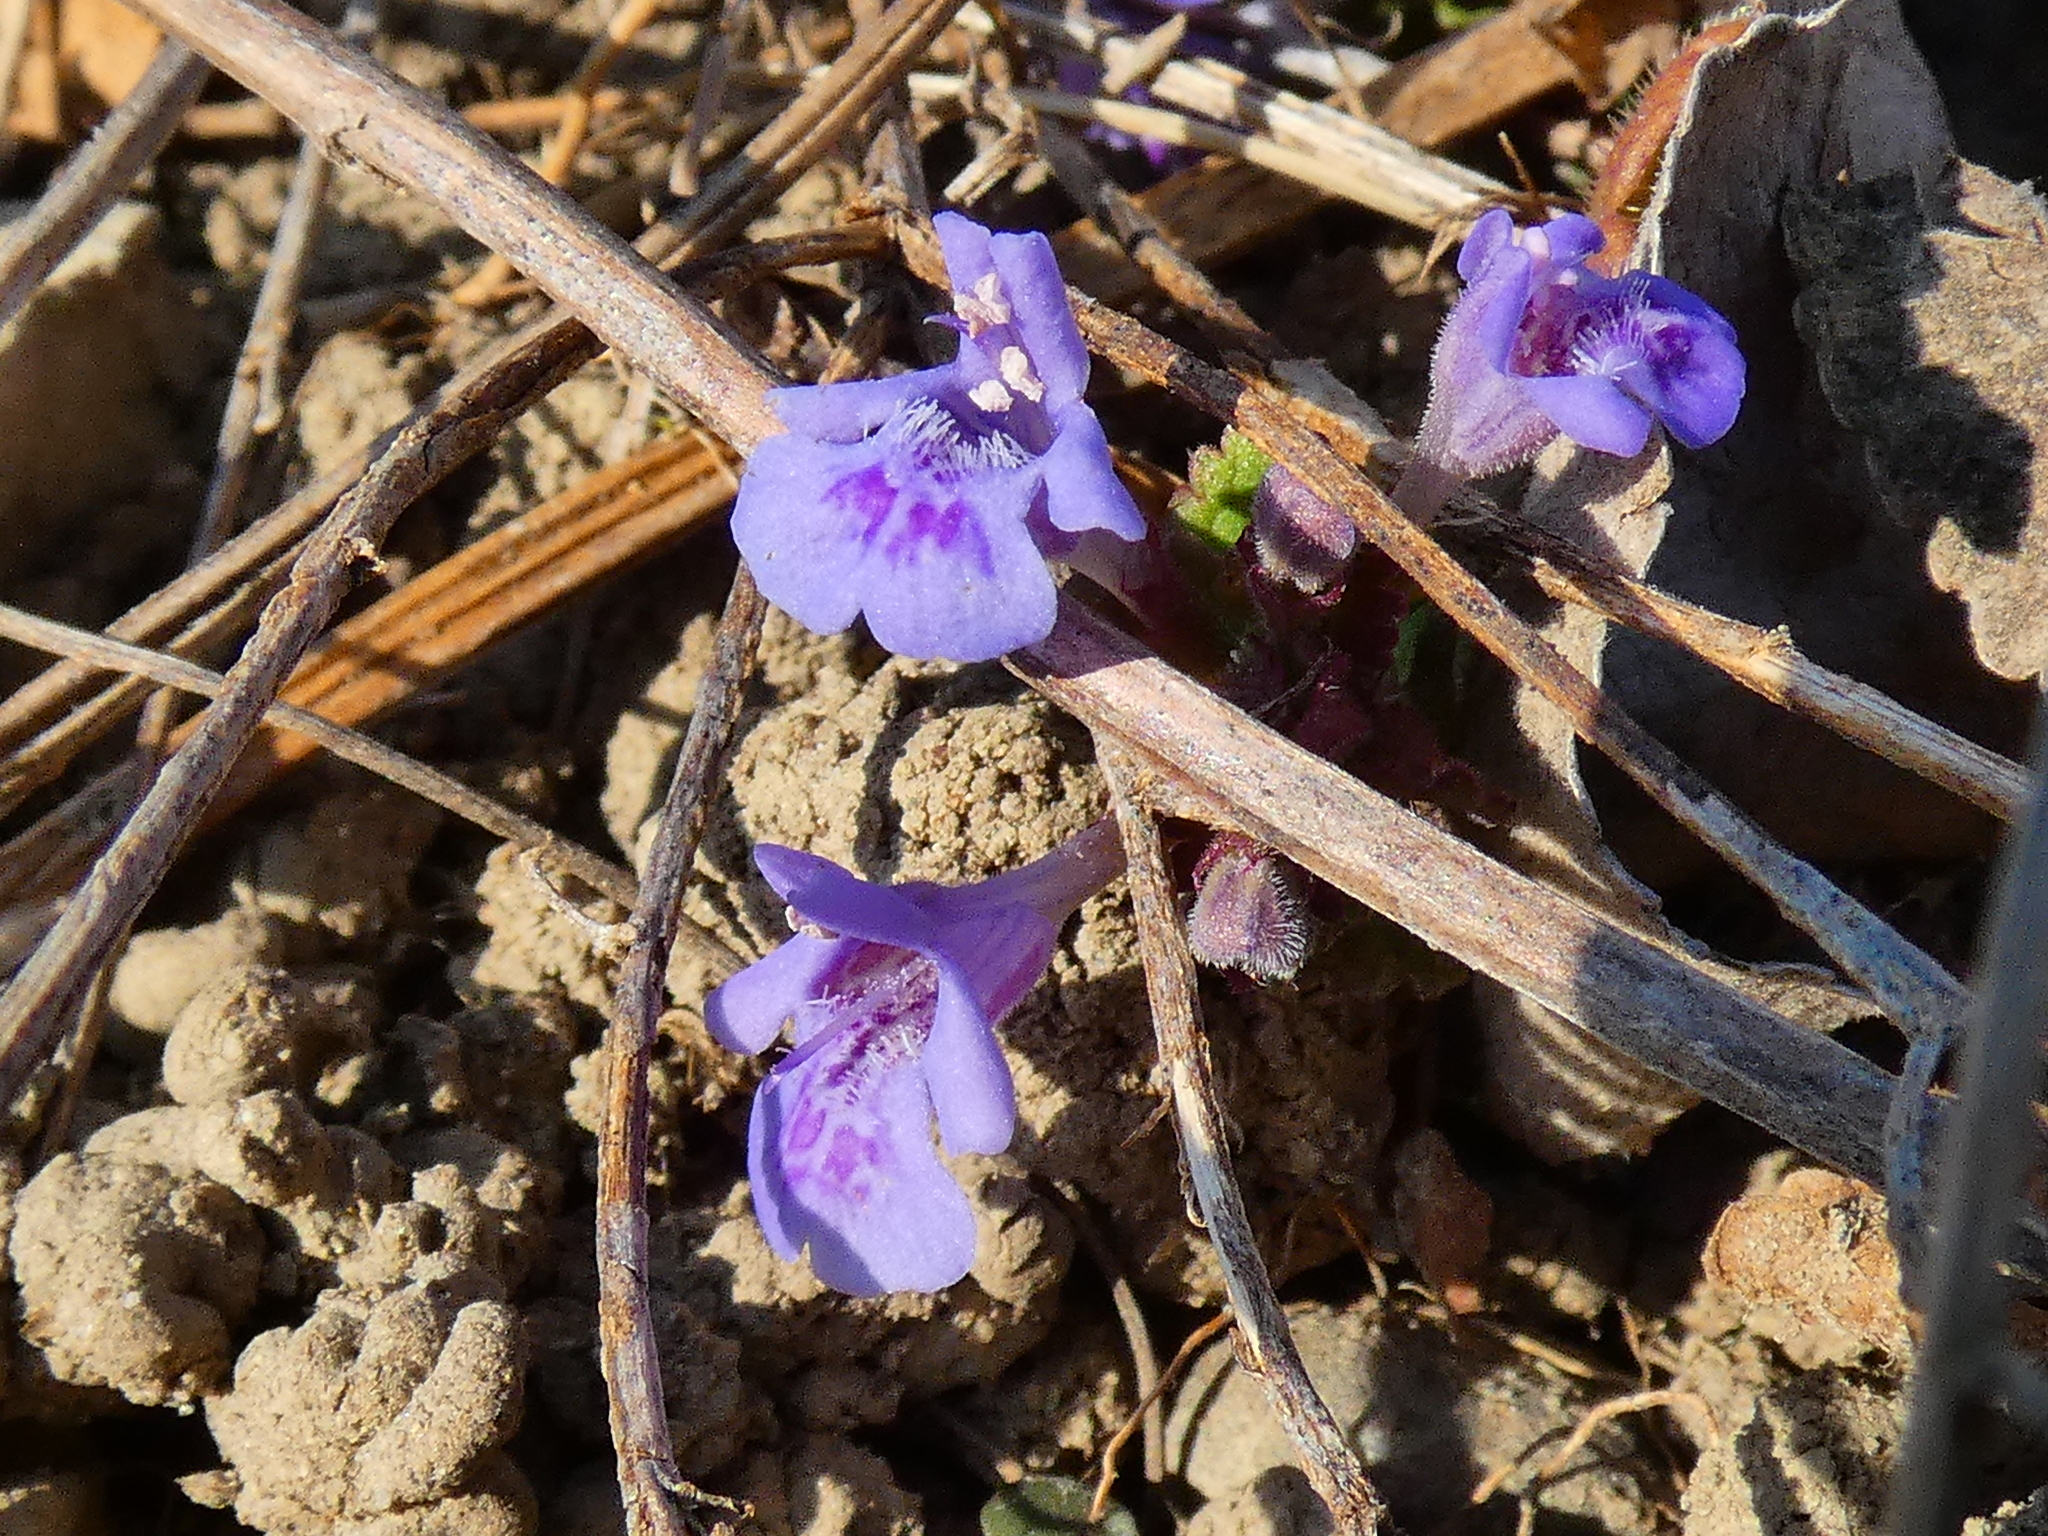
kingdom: Plantae
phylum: Tracheophyta
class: Magnoliopsida
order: Lamiales
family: Lamiaceae
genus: Glechoma
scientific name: Glechoma hederacea
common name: Ground ivy
